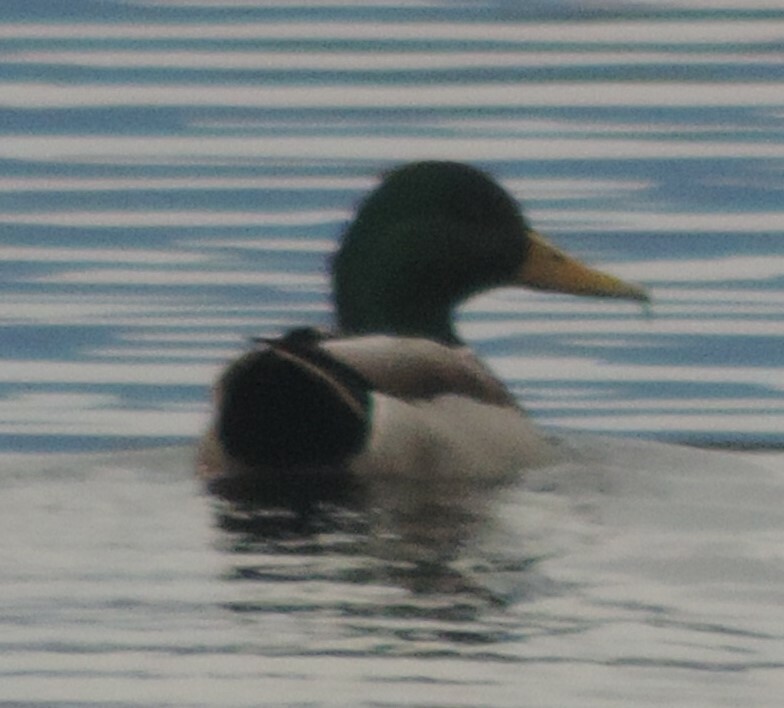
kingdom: Animalia
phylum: Chordata
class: Aves
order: Anseriformes
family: Anatidae
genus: Anas
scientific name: Anas platyrhynchos
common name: Mallard
